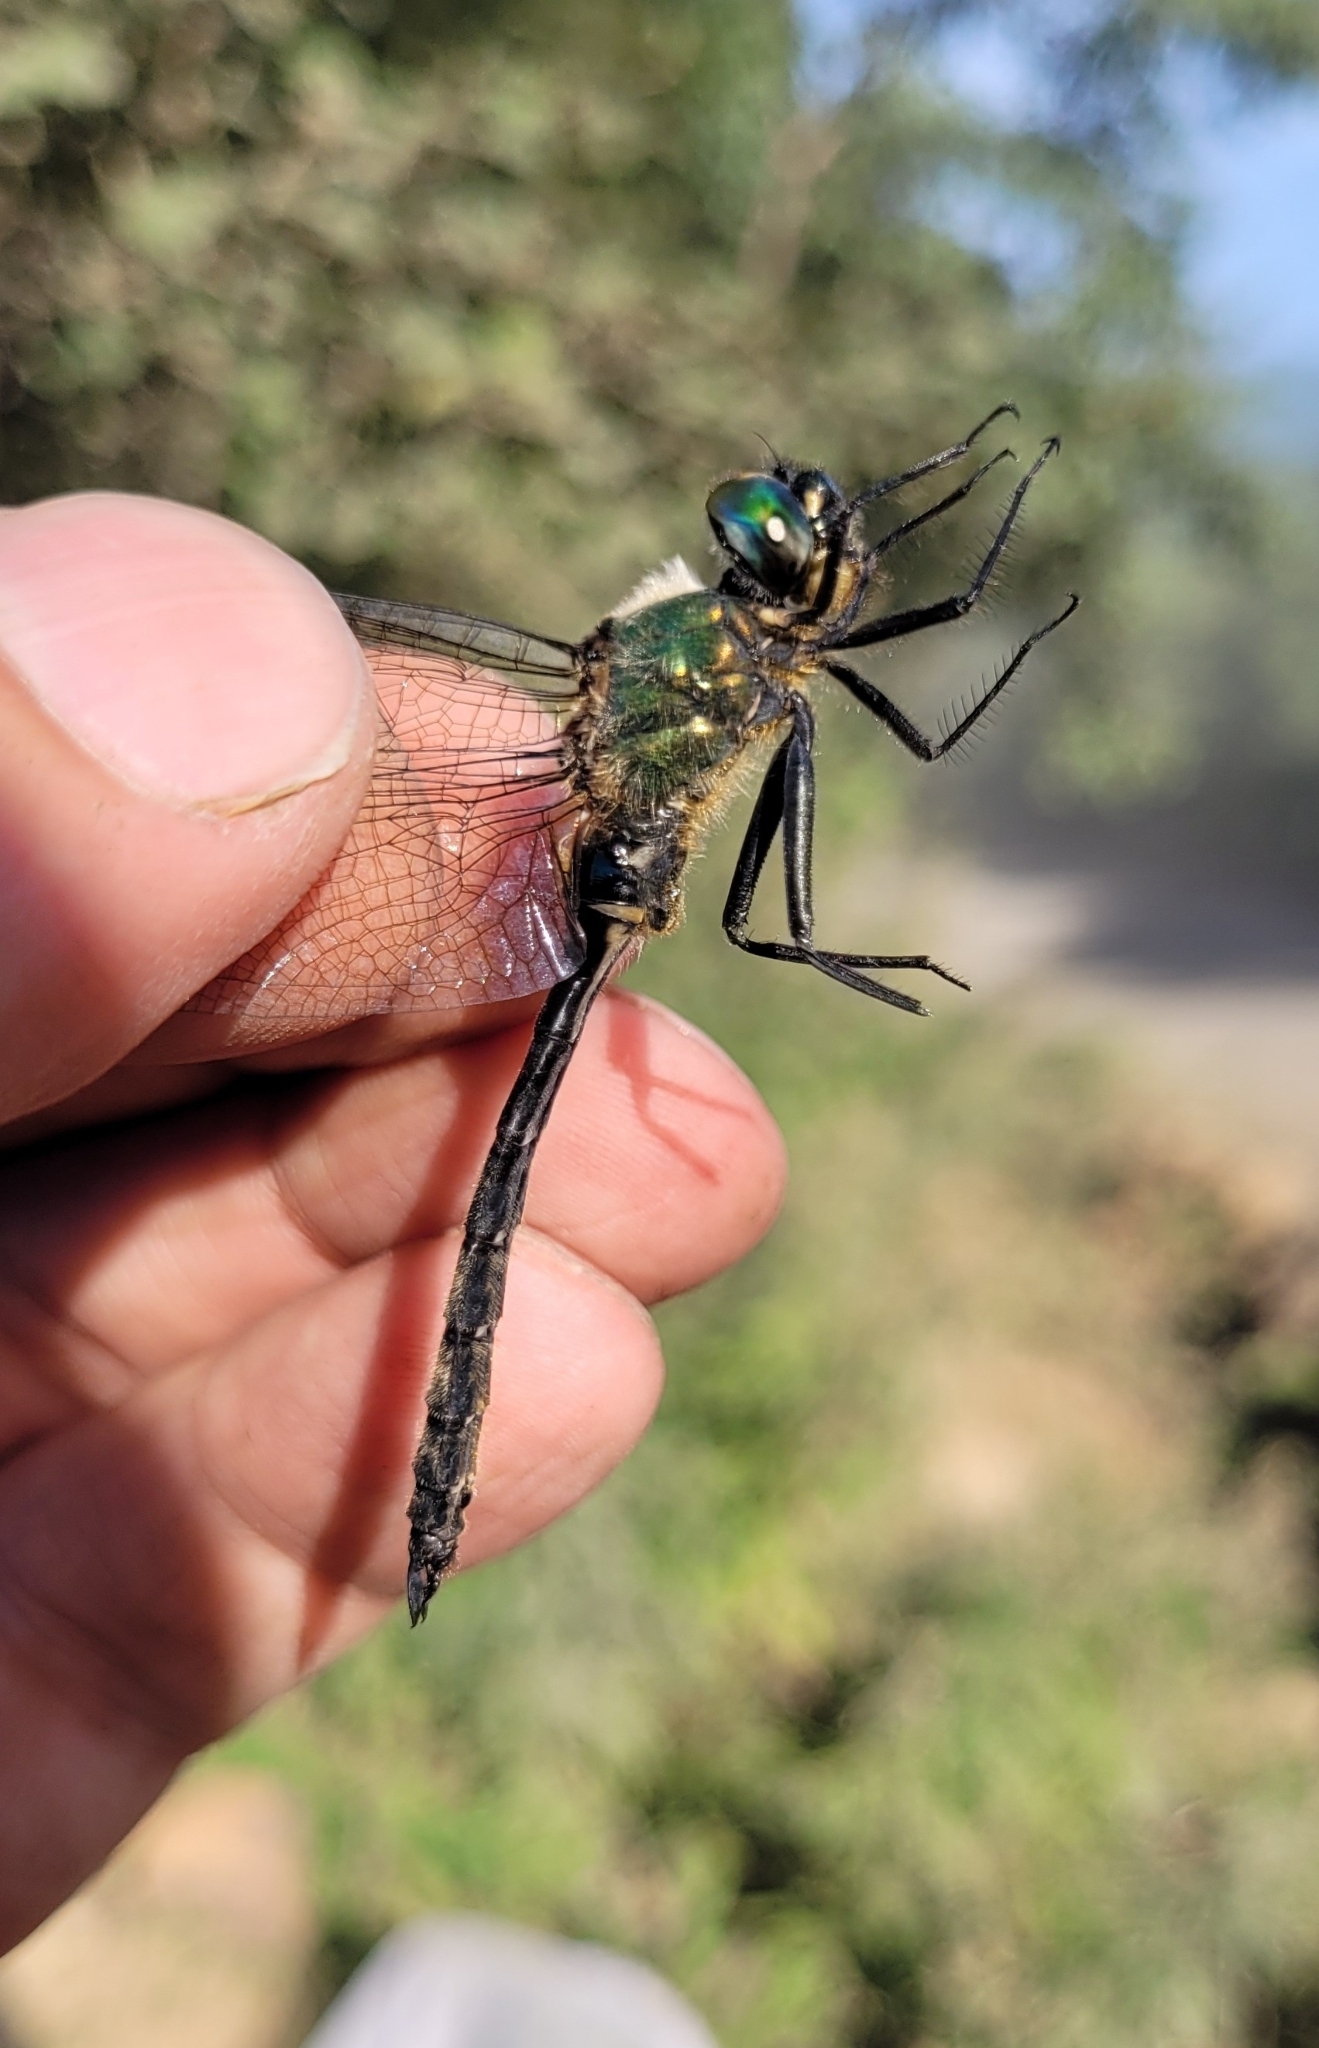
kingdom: Animalia
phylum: Arthropoda
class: Insecta
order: Odonata
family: Corduliidae
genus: Somatochlora
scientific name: Somatochlora uchidai
